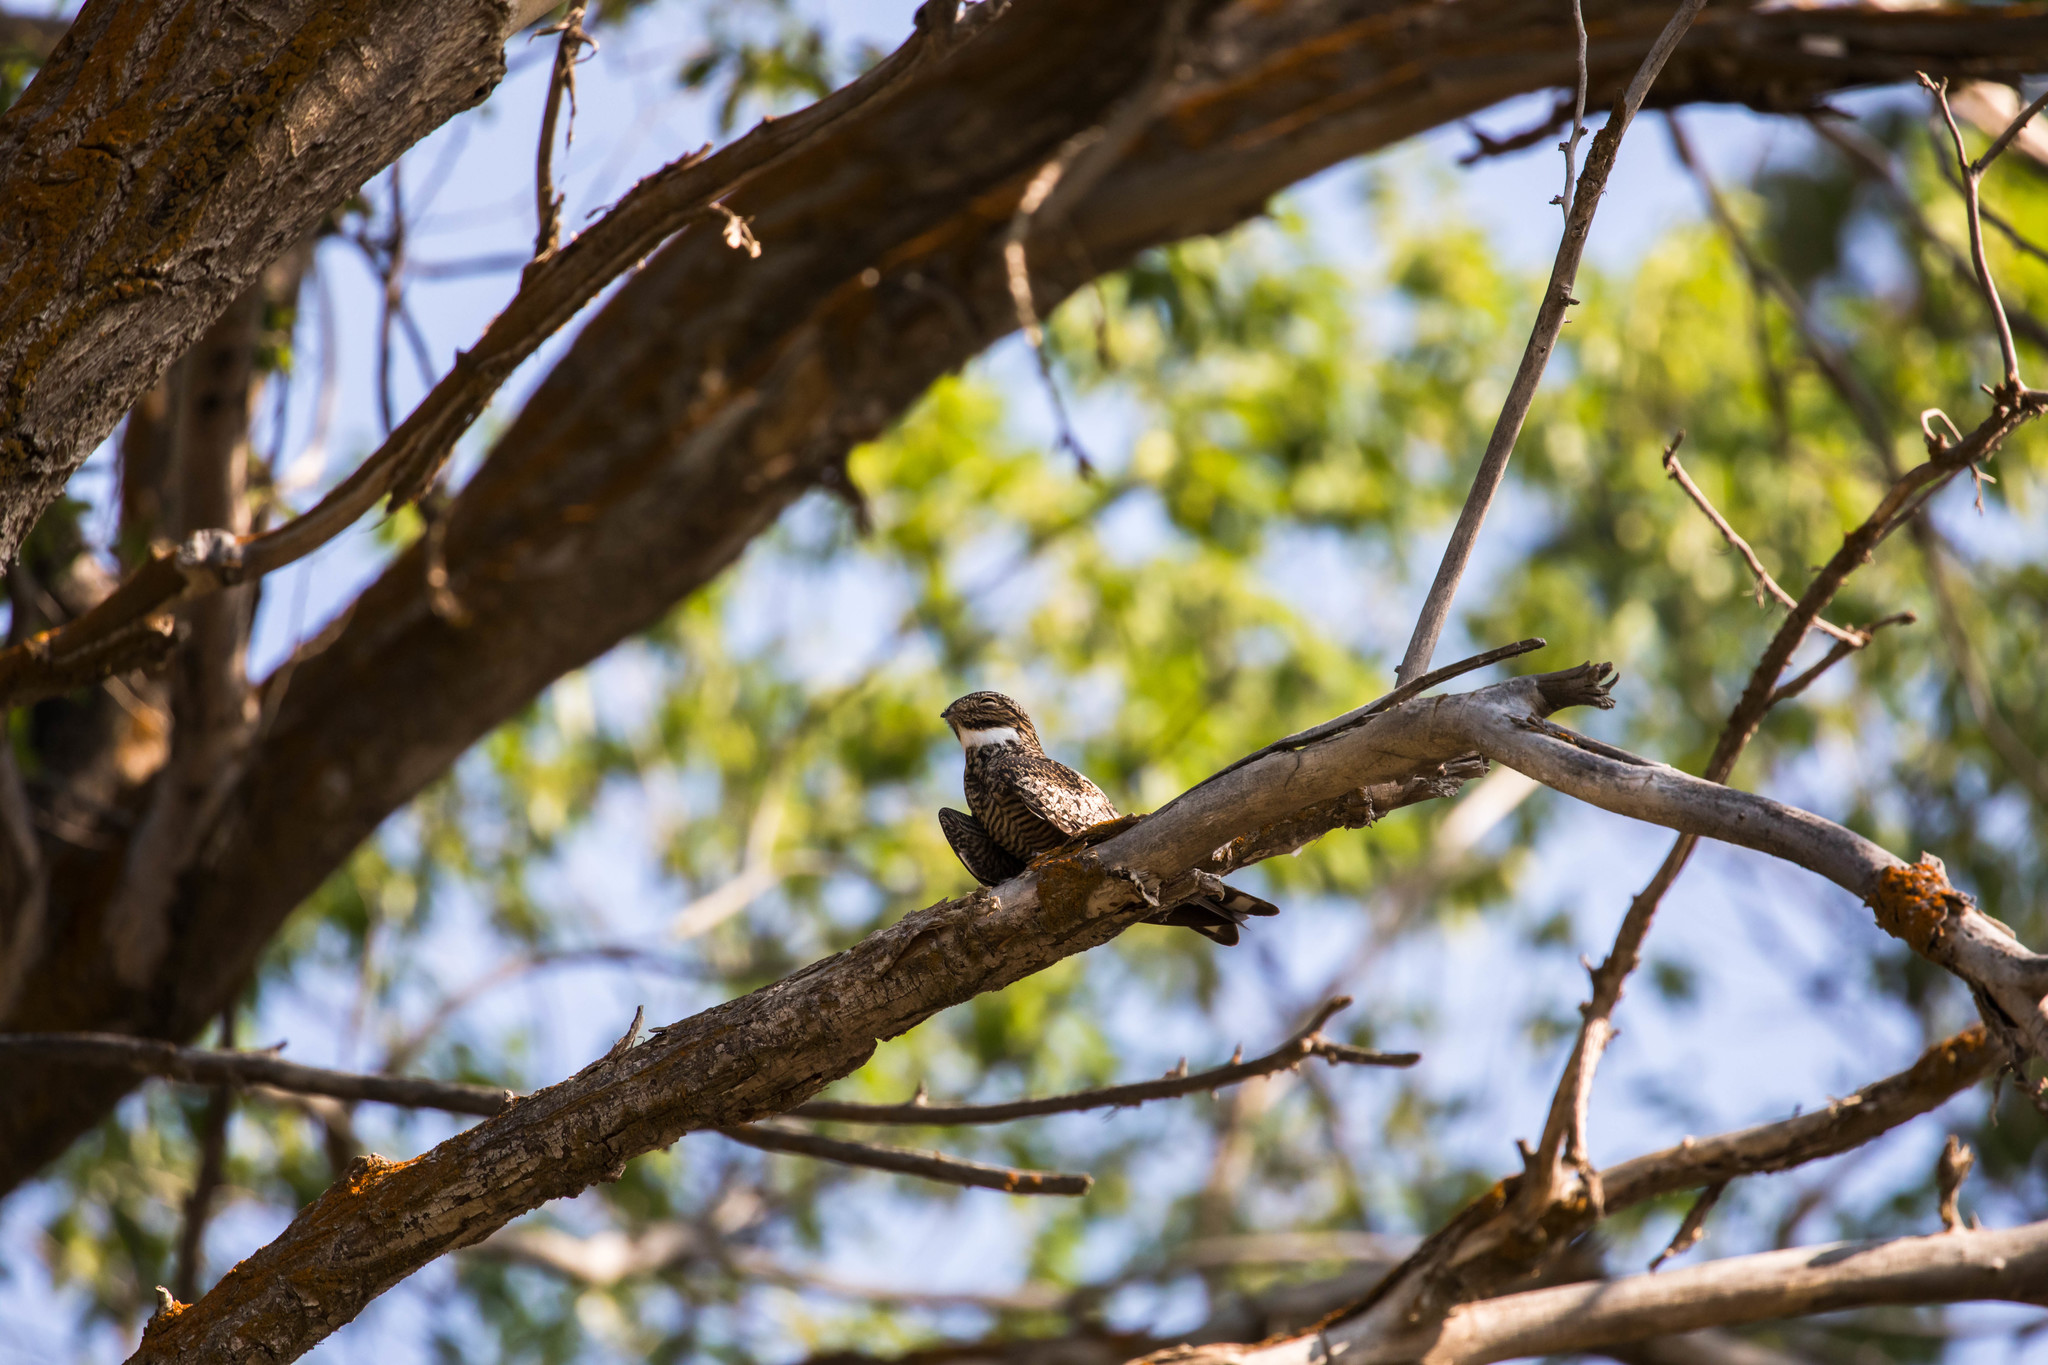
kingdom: Animalia
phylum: Chordata
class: Aves
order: Caprimulgiformes
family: Caprimulgidae
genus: Chordeiles
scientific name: Chordeiles minor
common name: Common nighthawk
